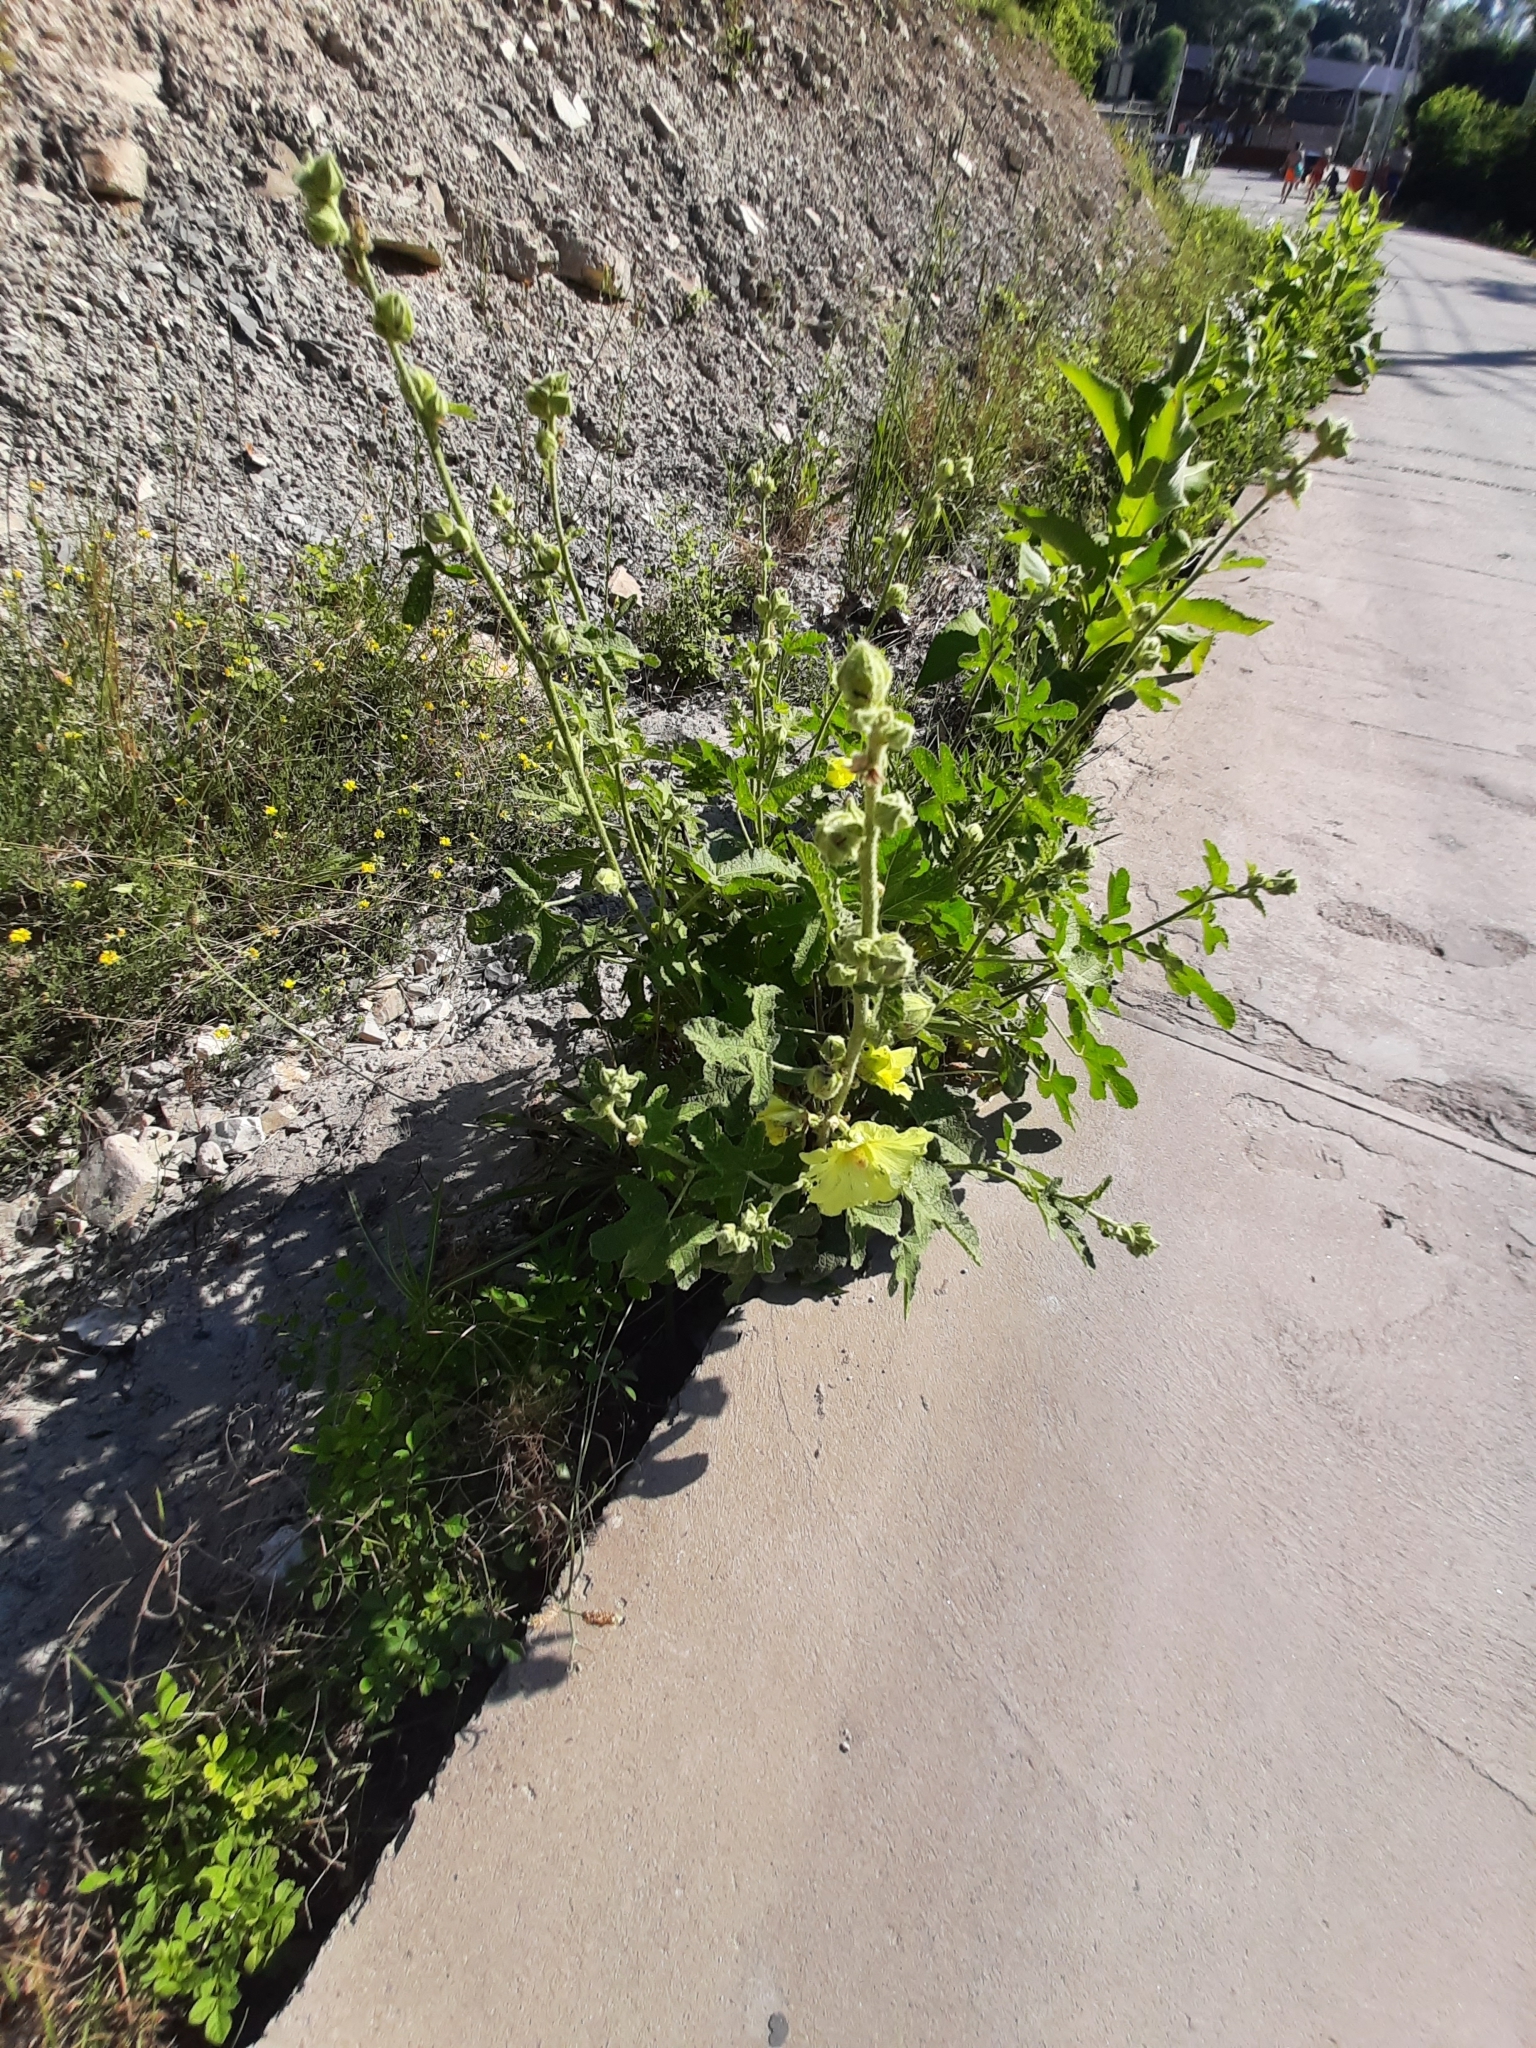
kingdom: Plantae
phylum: Tracheophyta
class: Magnoliopsida
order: Malvales
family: Malvaceae
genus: Alcea
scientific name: Alcea rugosa
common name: Russian hollyhock
